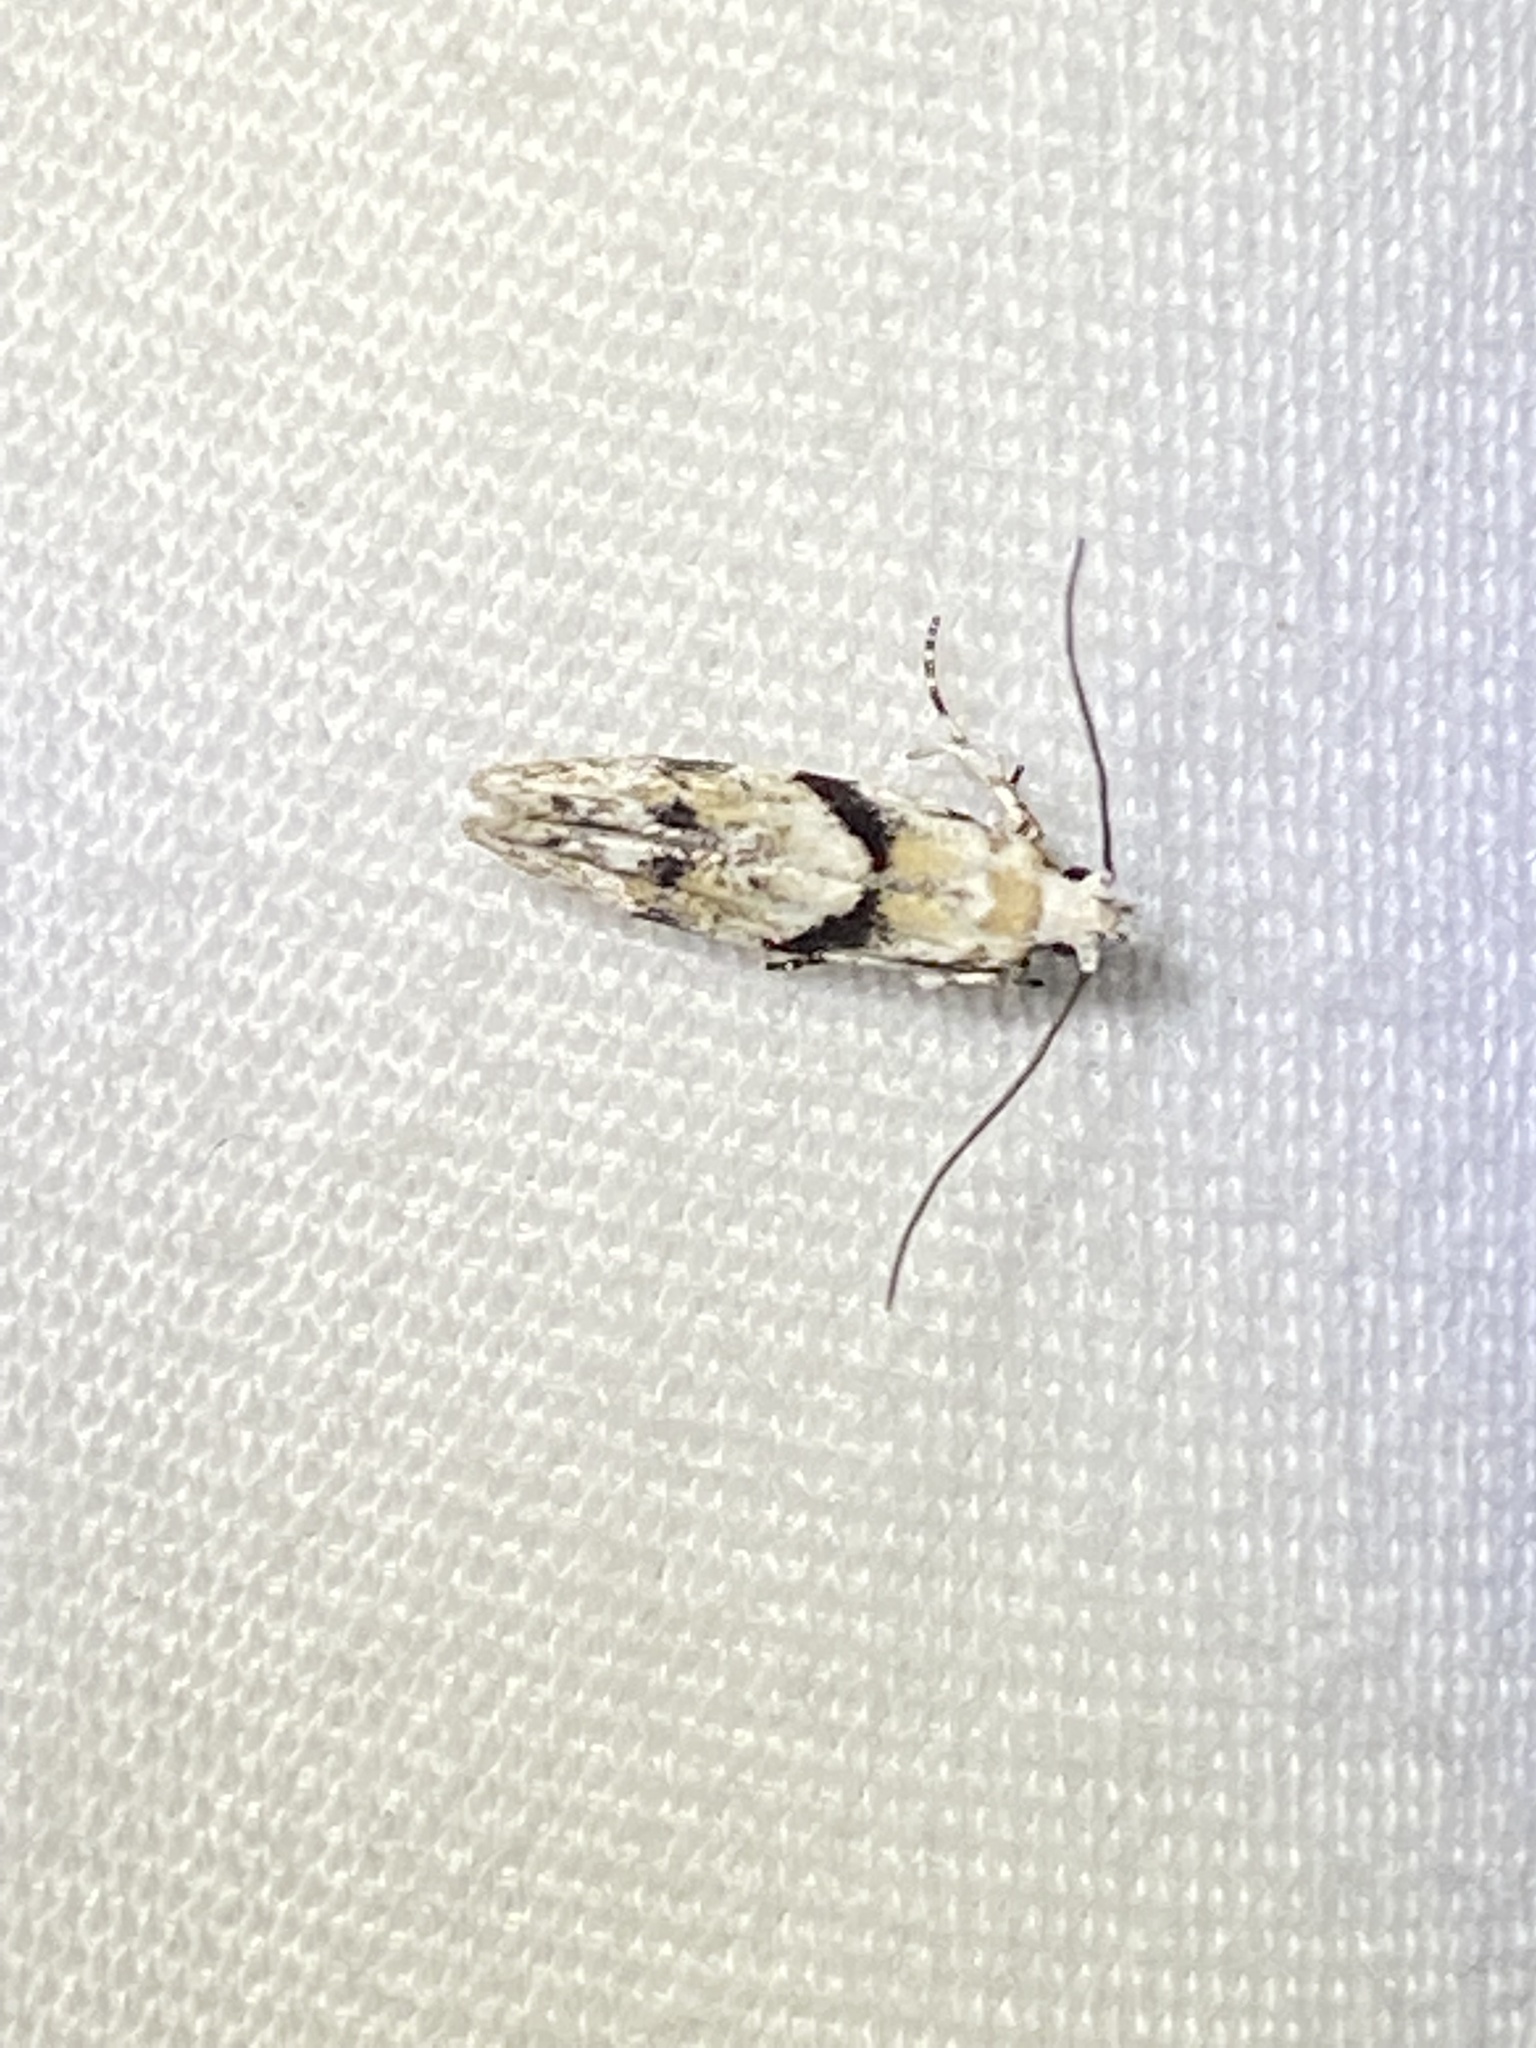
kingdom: Animalia
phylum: Arthropoda
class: Insecta
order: Lepidoptera
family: Gelechiidae
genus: Arogalea
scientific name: Arogalea cristifasciella
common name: White stripe-backed moth
